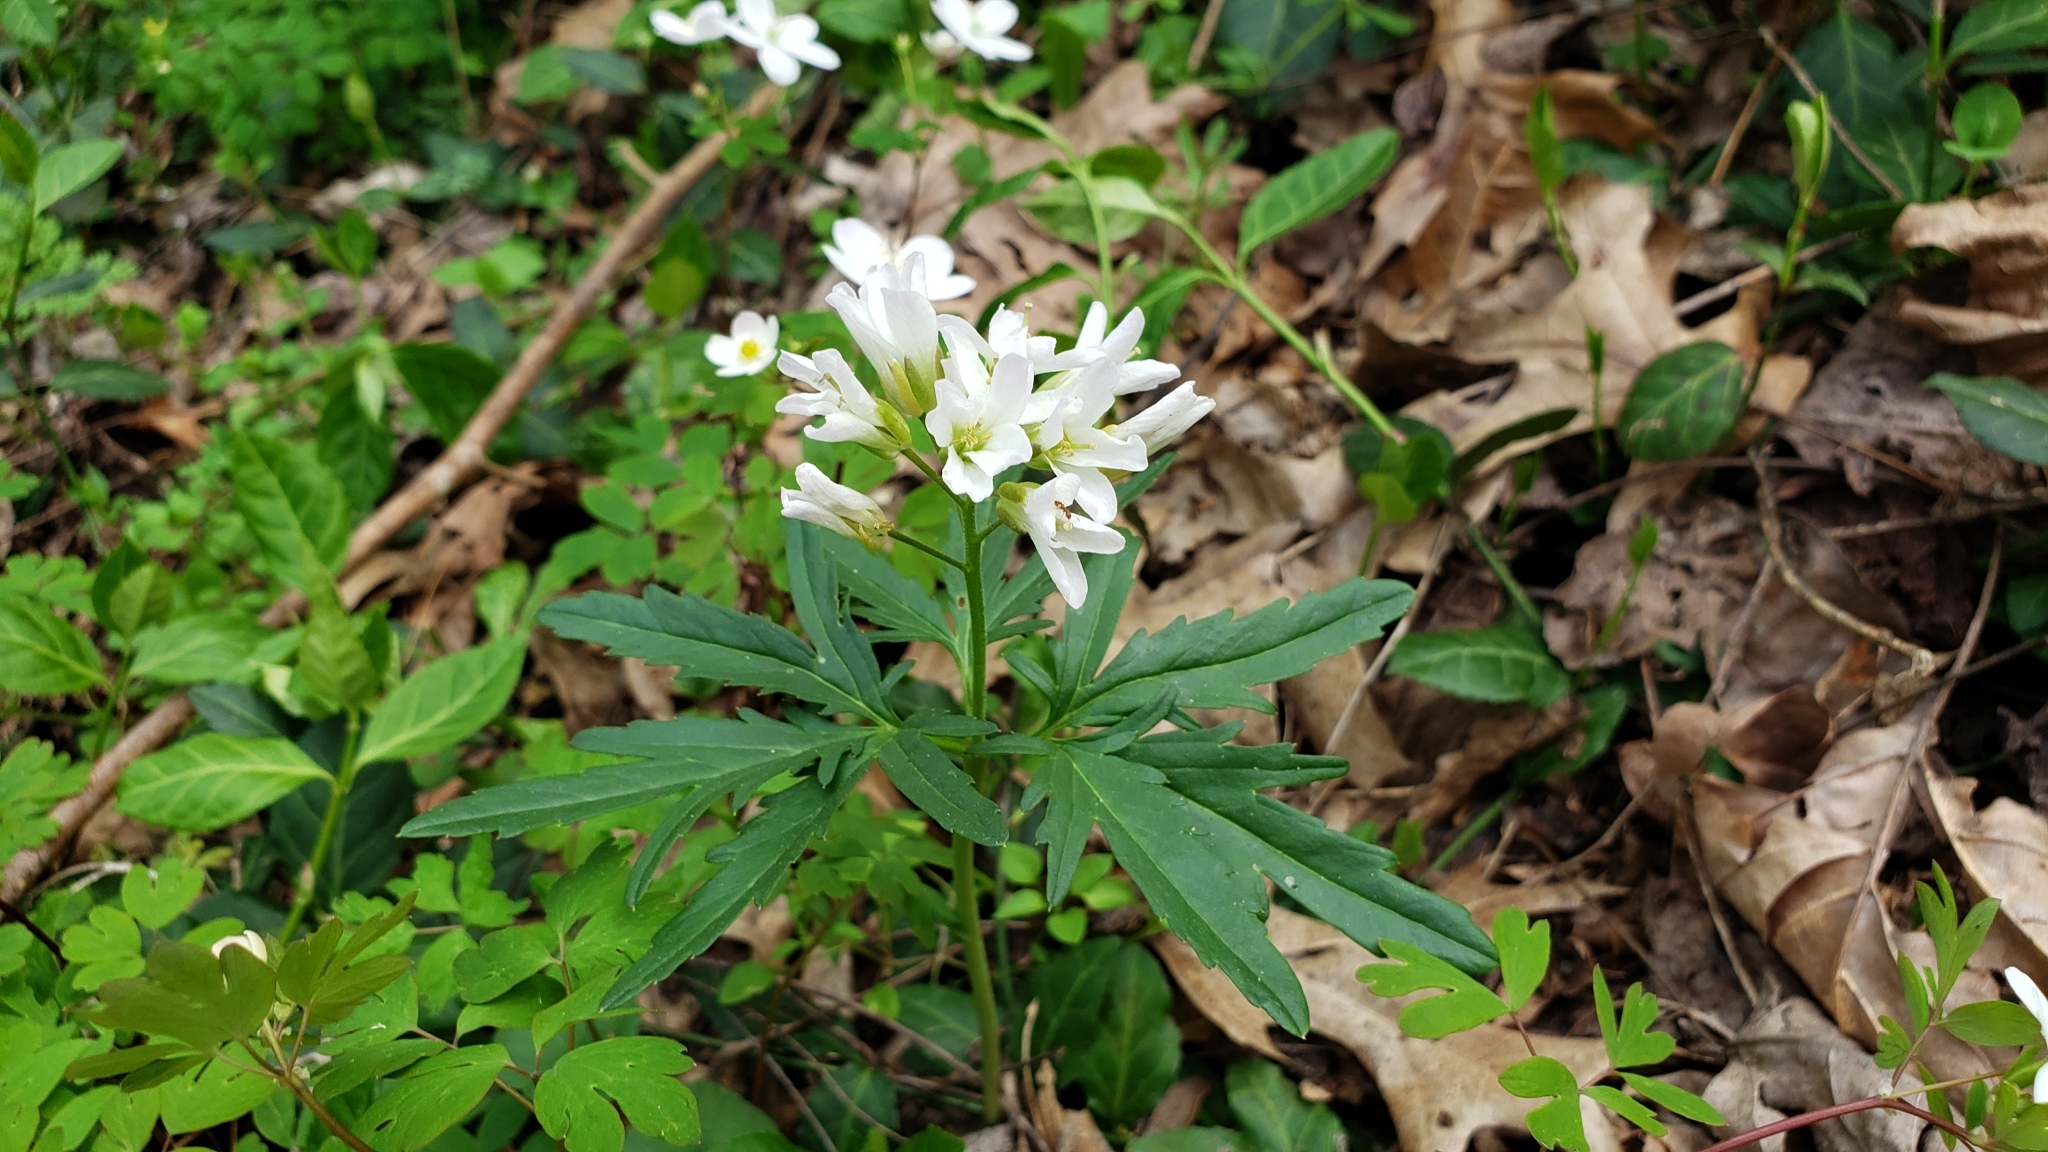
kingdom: Plantae
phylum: Tracheophyta
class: Magnoliopsida
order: Brassicales
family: Brassicaceae
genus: Cardamine
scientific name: Cardamine concatenata
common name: Cut-leaf toothcup
